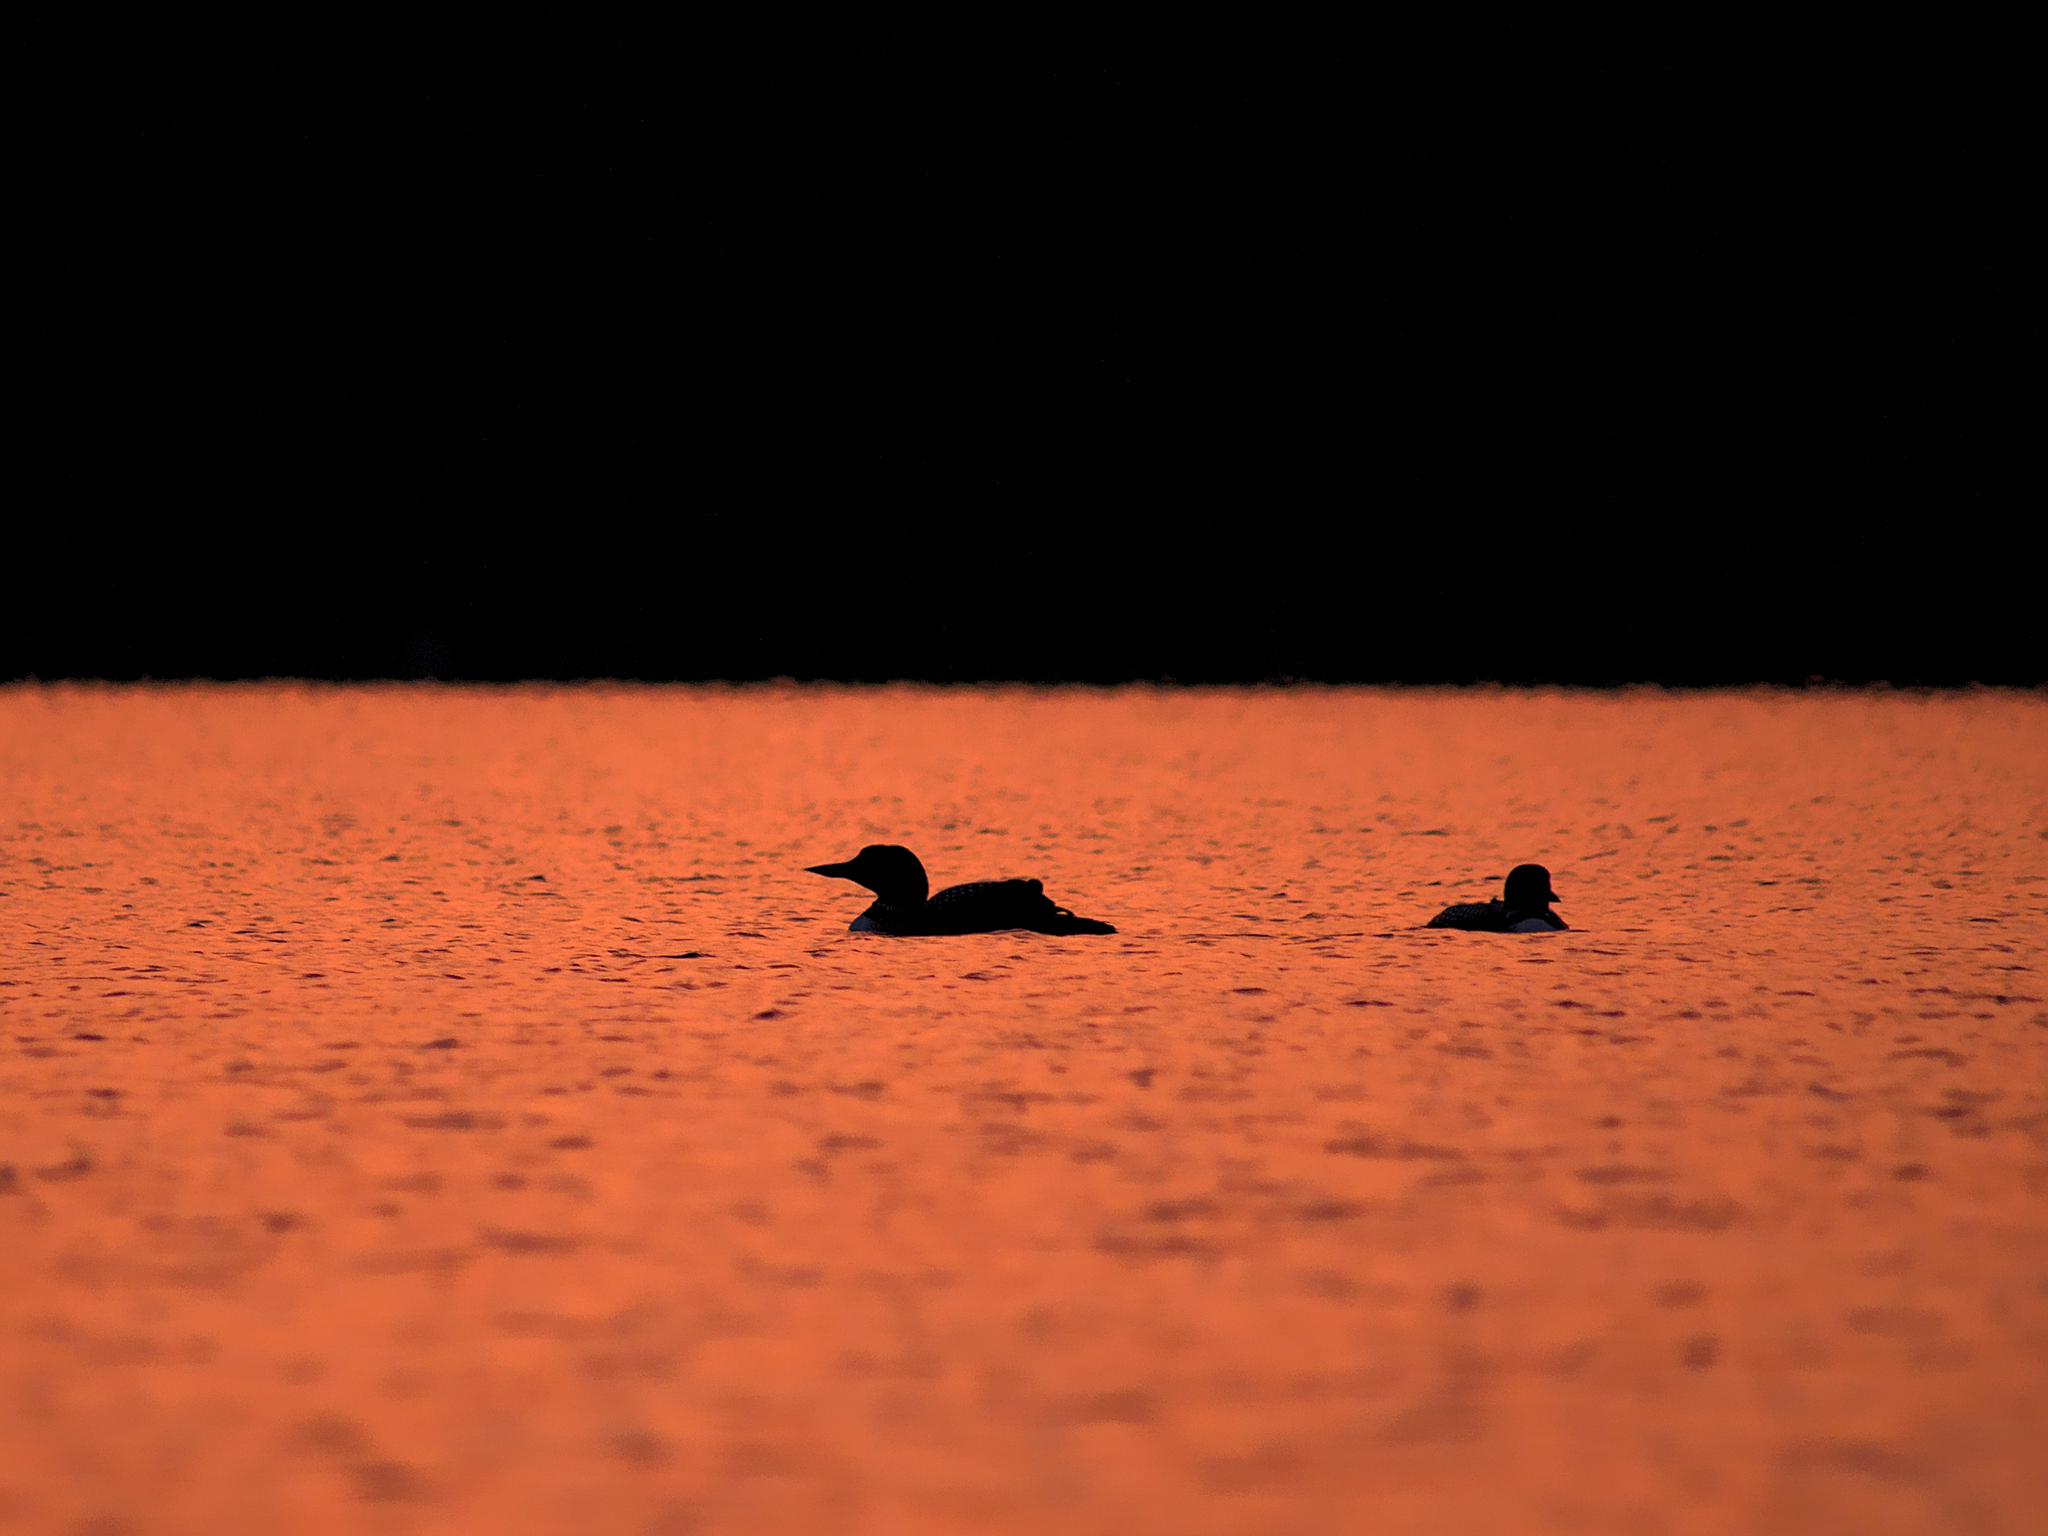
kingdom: Animalia
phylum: Chordata
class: Aves
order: Gaviiformes
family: Gaviidae
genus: Gavia
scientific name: Gavia immer
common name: Common loon
